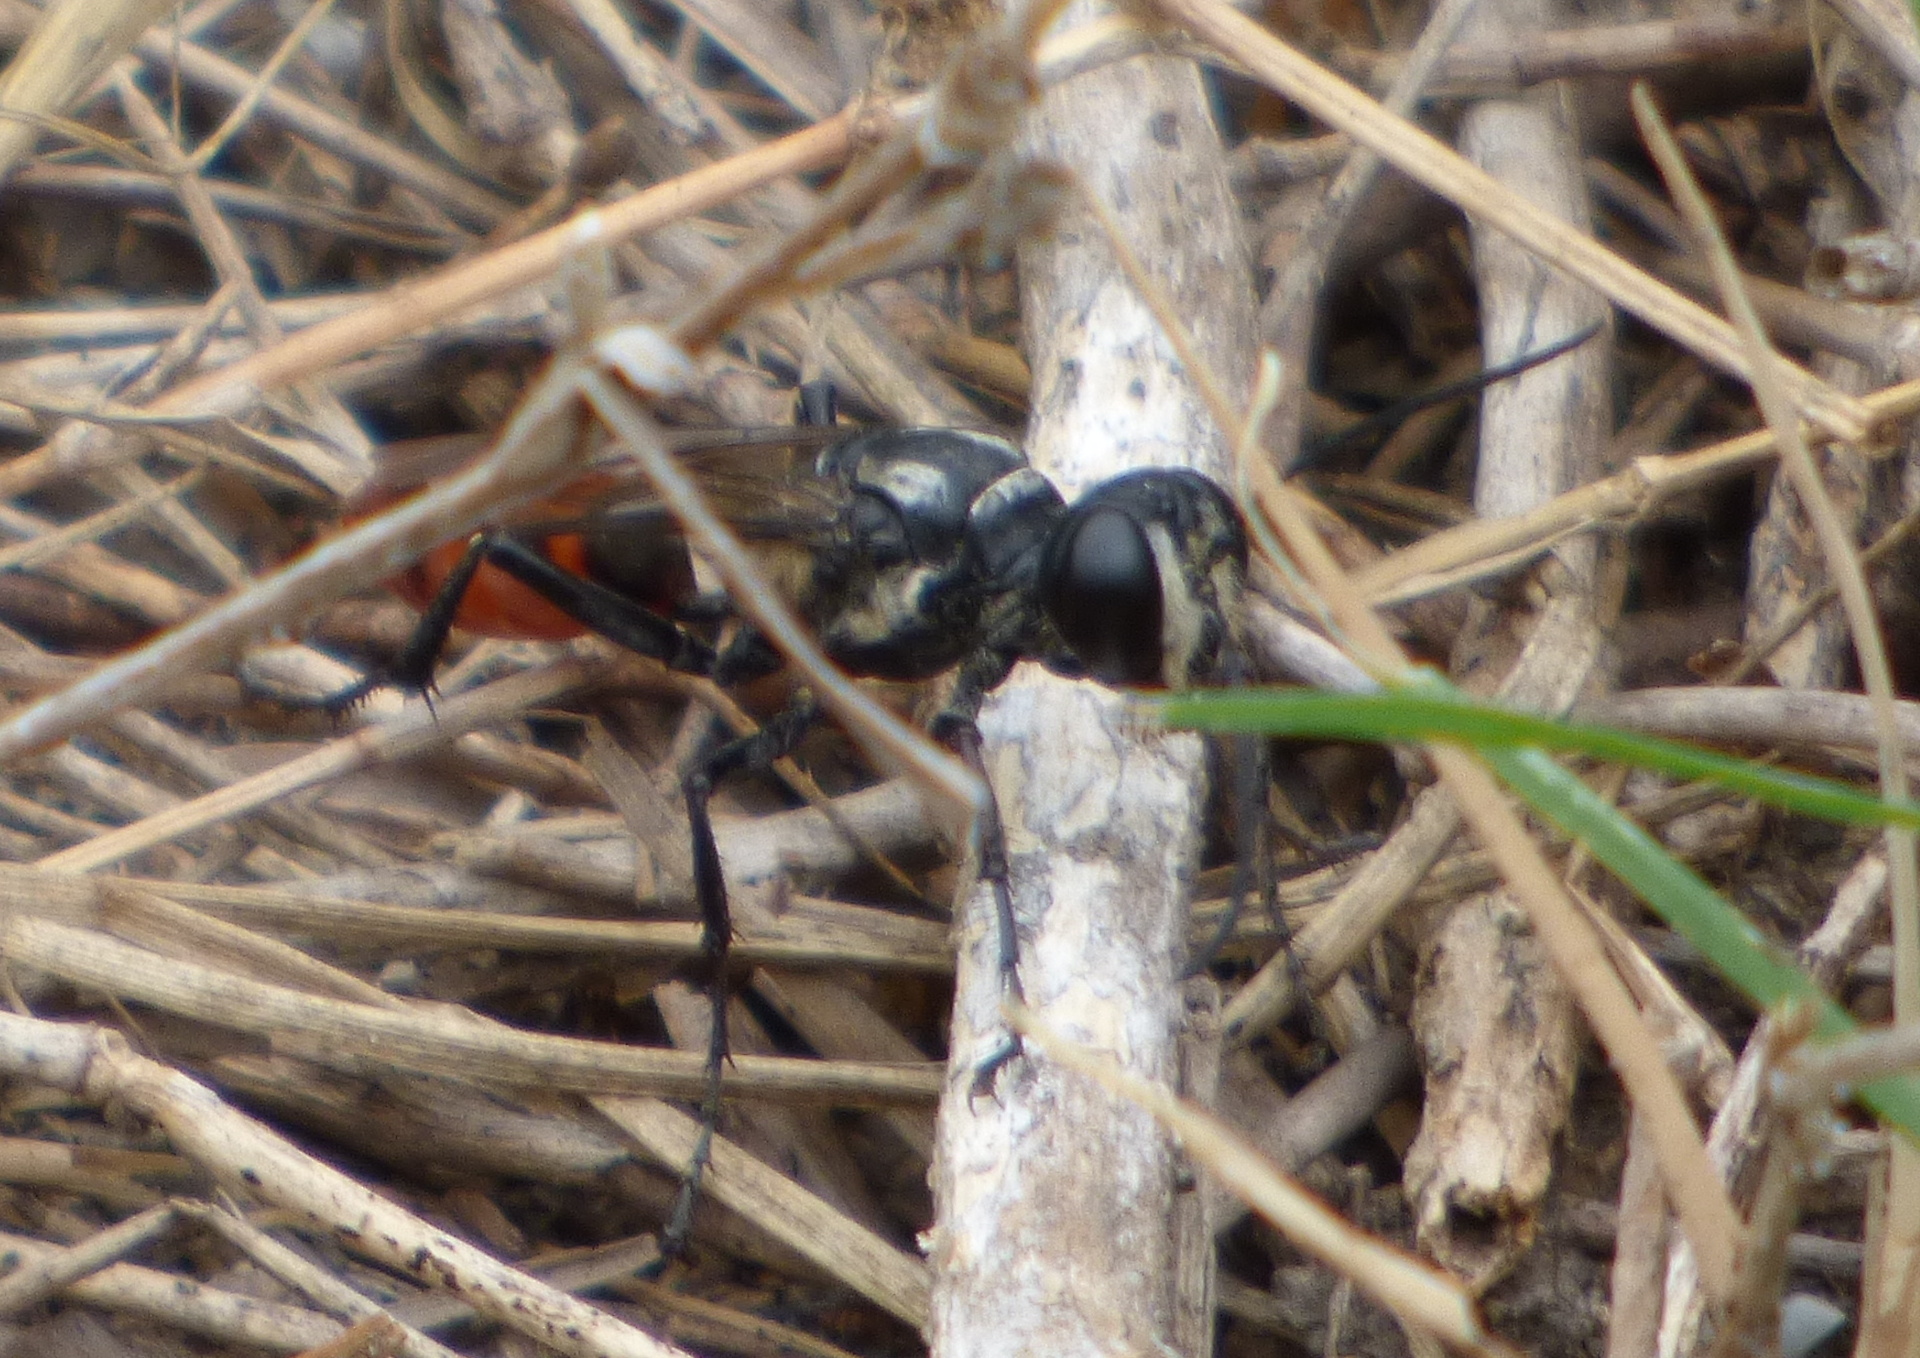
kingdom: Animalia
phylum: Arthropoda
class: Insecta
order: Hymenoptera
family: Sphecidae
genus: Sphex
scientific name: Sphex argentinus
